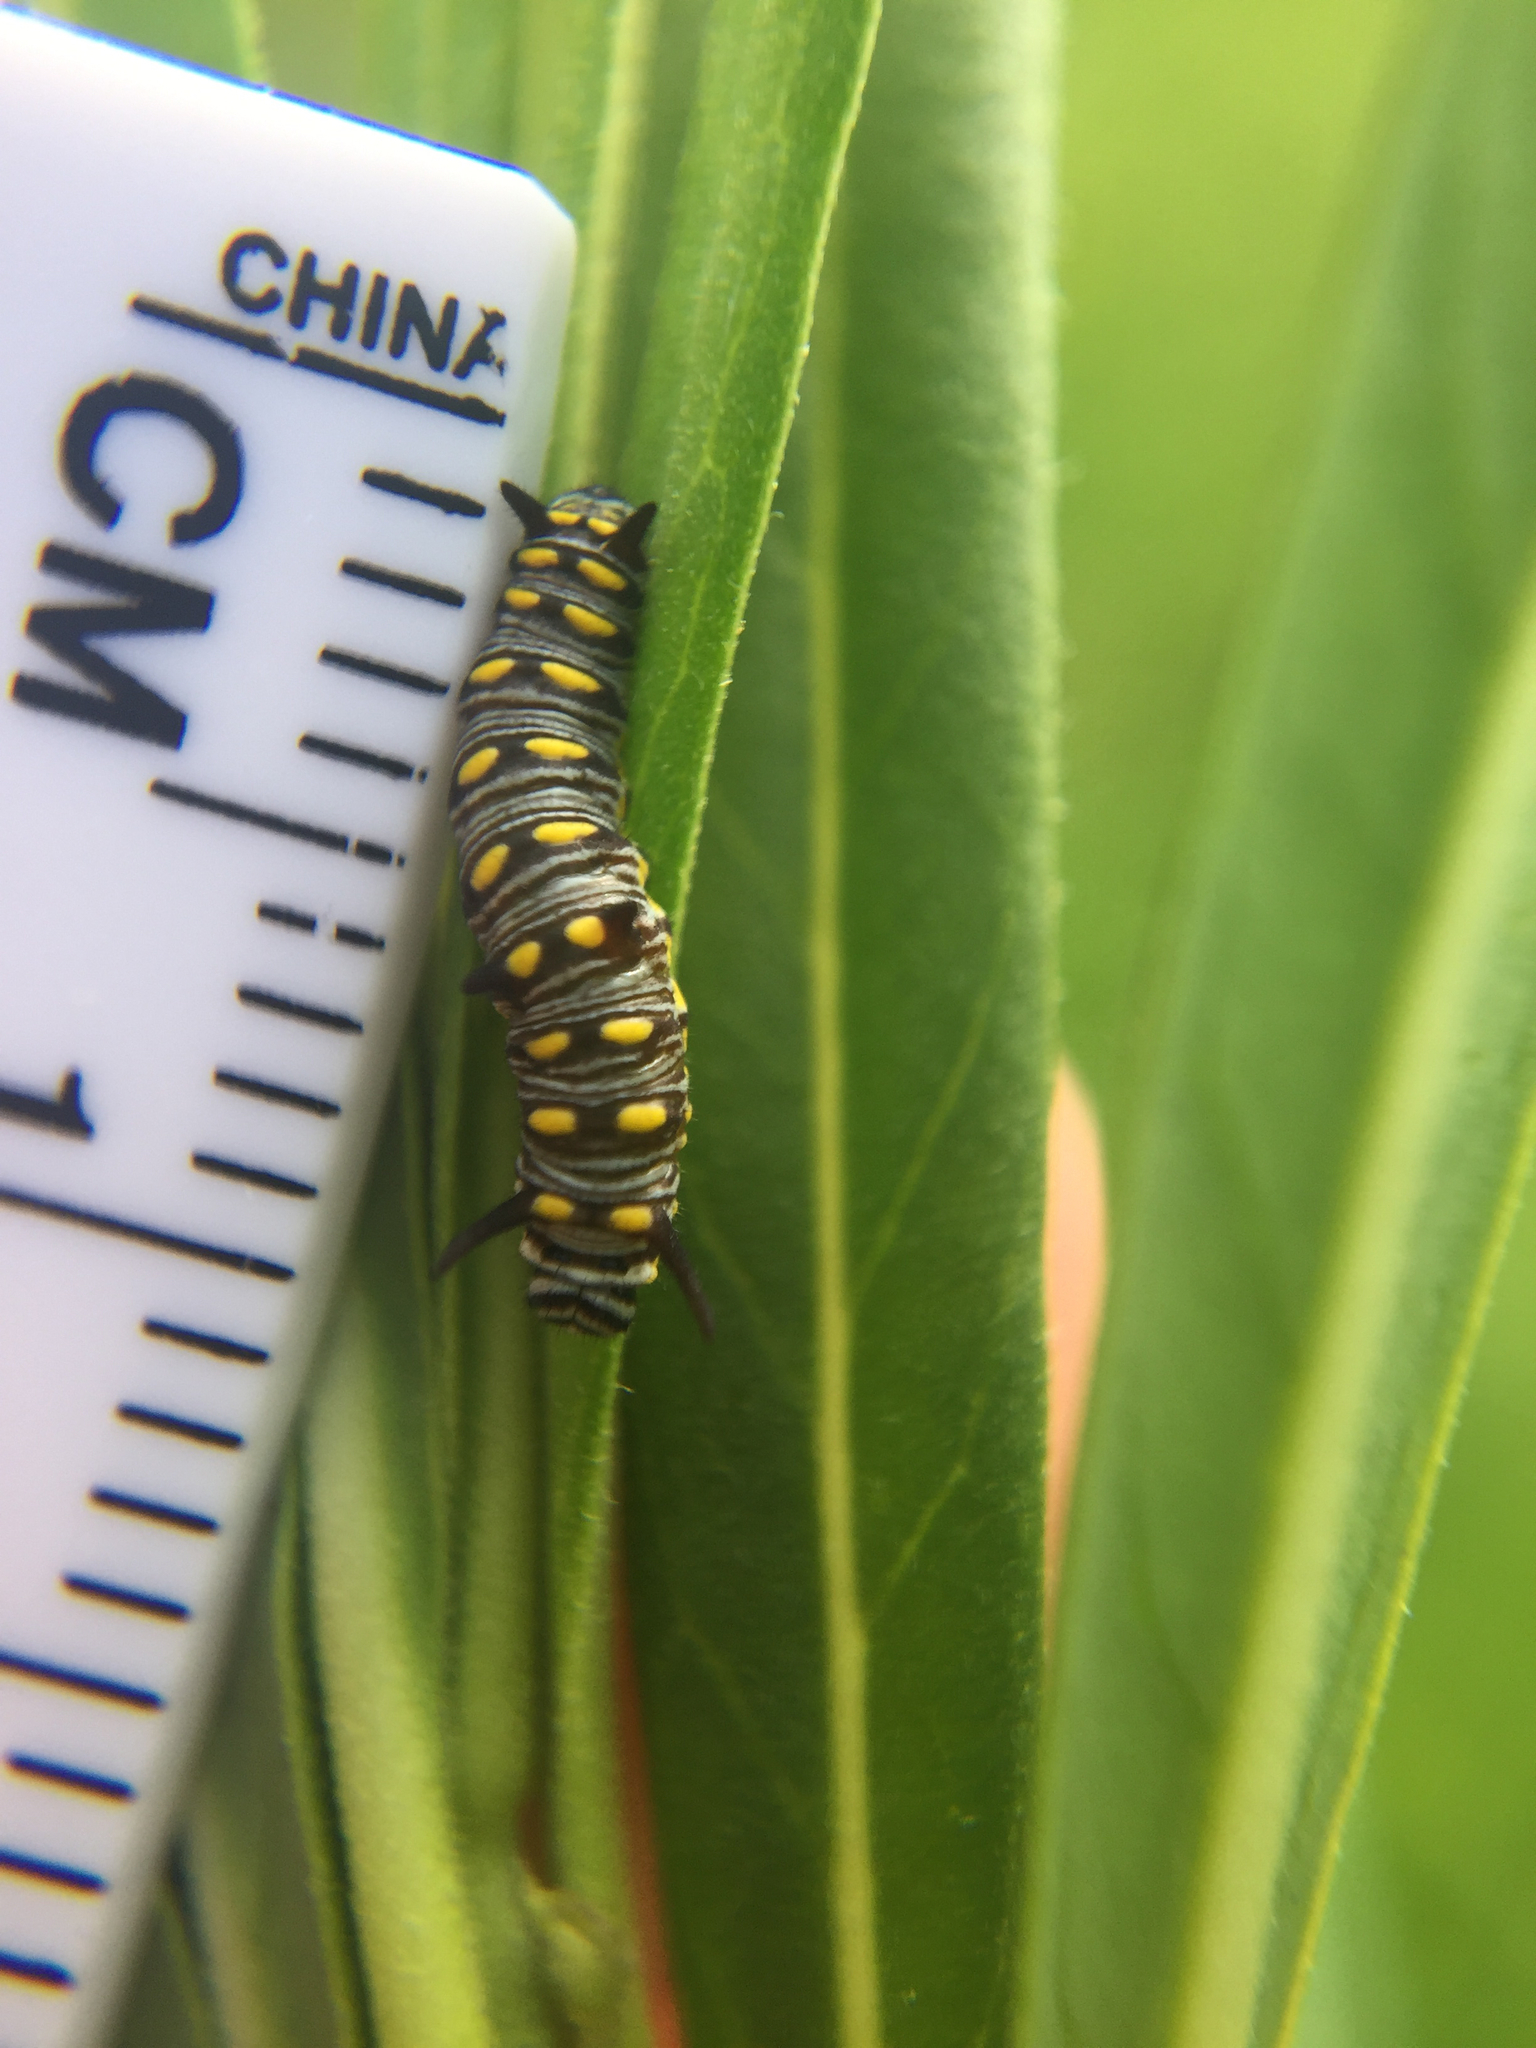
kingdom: Animalia
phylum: Arthropoda
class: Insecta
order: Lepidoptera
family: Nymphalidae
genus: Danaus
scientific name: Danaus chrysippus
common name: Plain tiger
